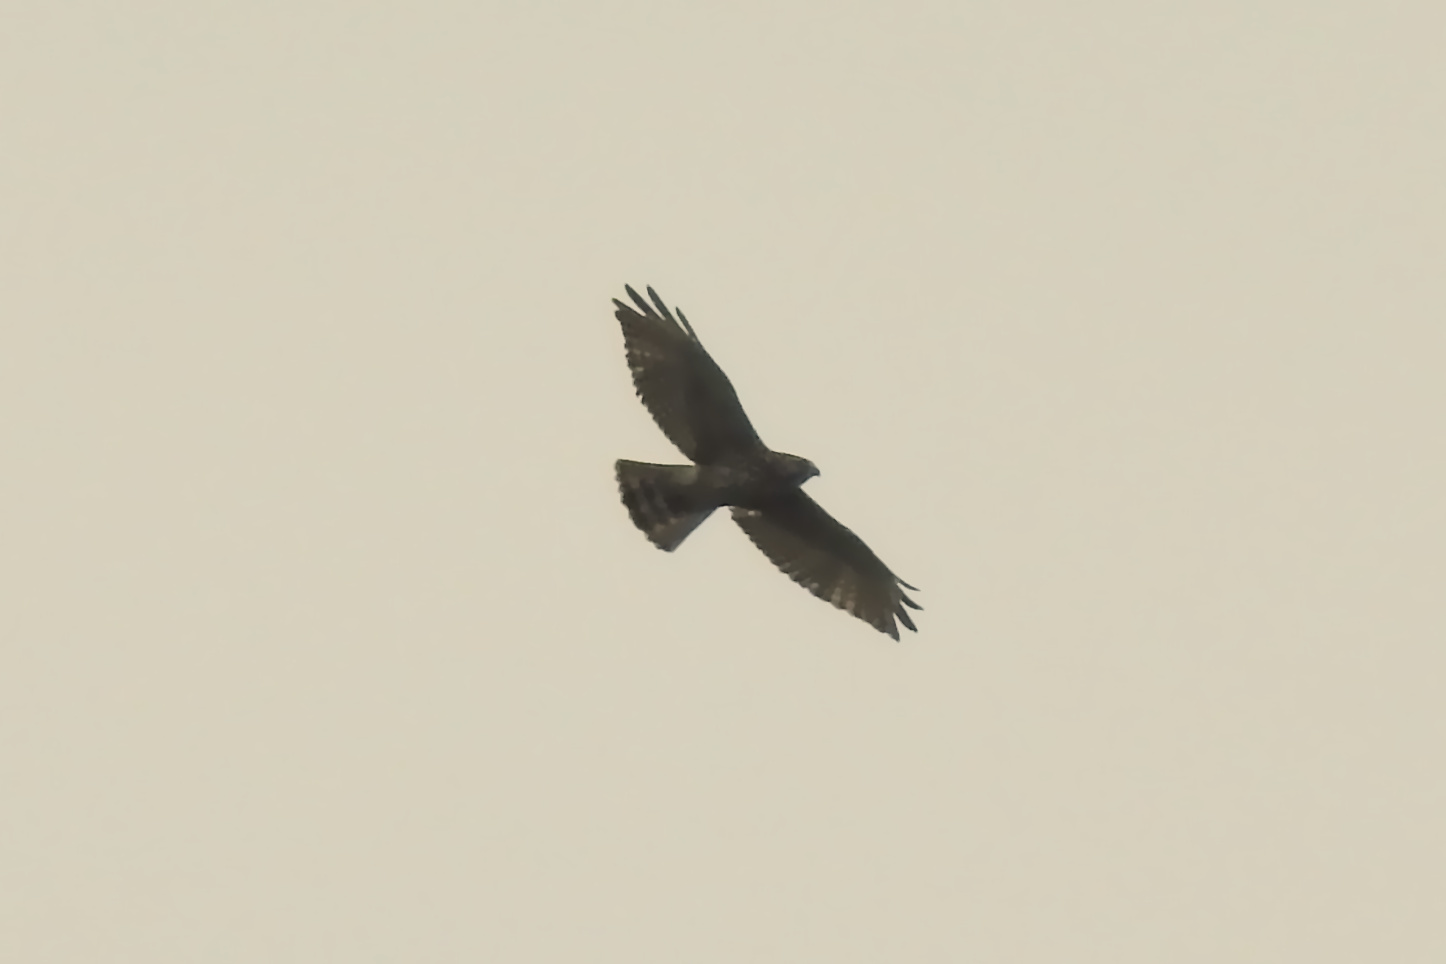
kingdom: Animalia
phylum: Chordata
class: Aves
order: Accipitriformes
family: Accipitridae
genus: Buteo
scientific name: Buteo platypterus
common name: Broad-winged hawk
